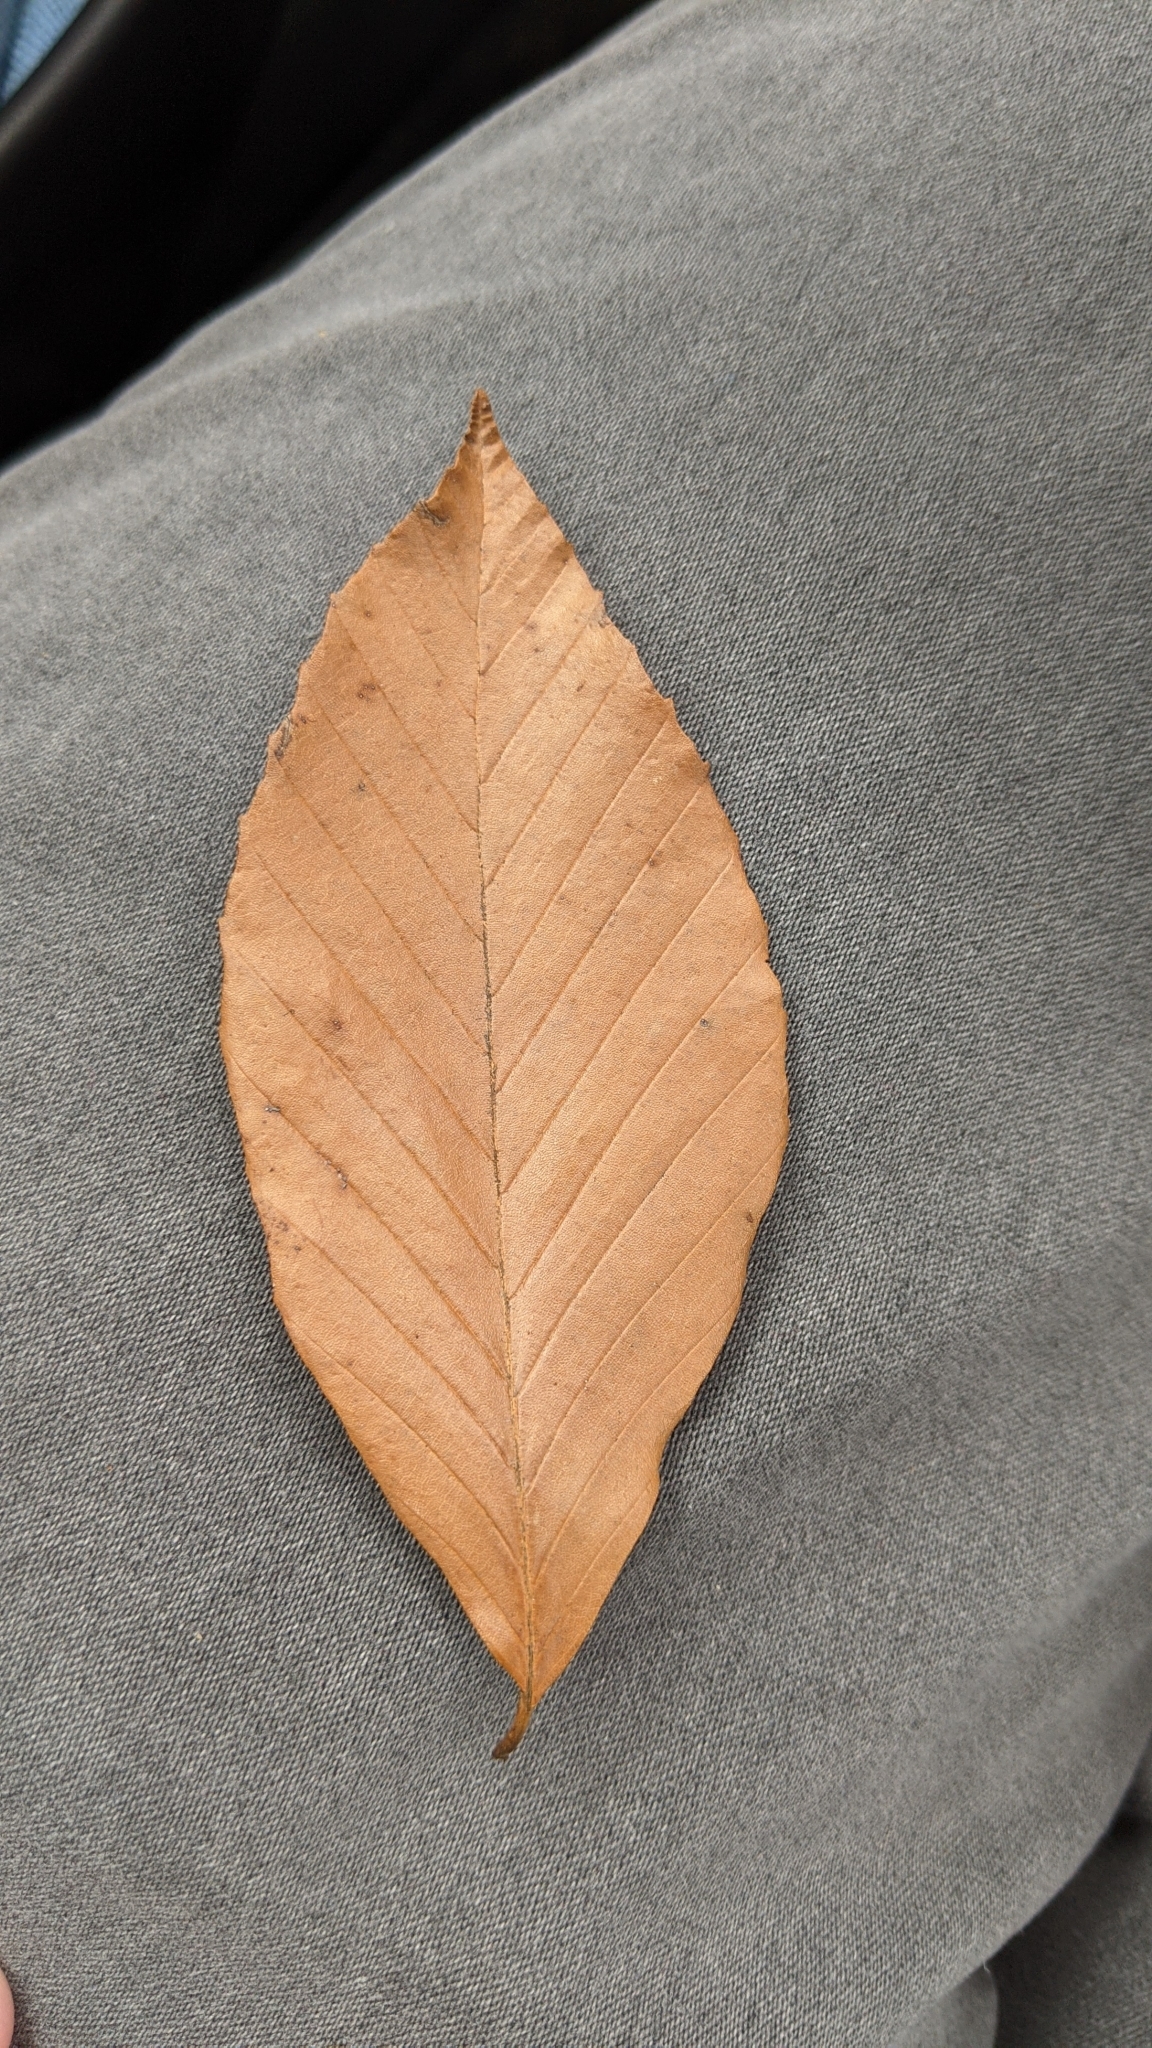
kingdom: Plantae
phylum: Tracheophyta
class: Magnoliopsida
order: Fagales
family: Fagaceae
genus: Fagus
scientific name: Fagus grandifolia
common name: American beech
